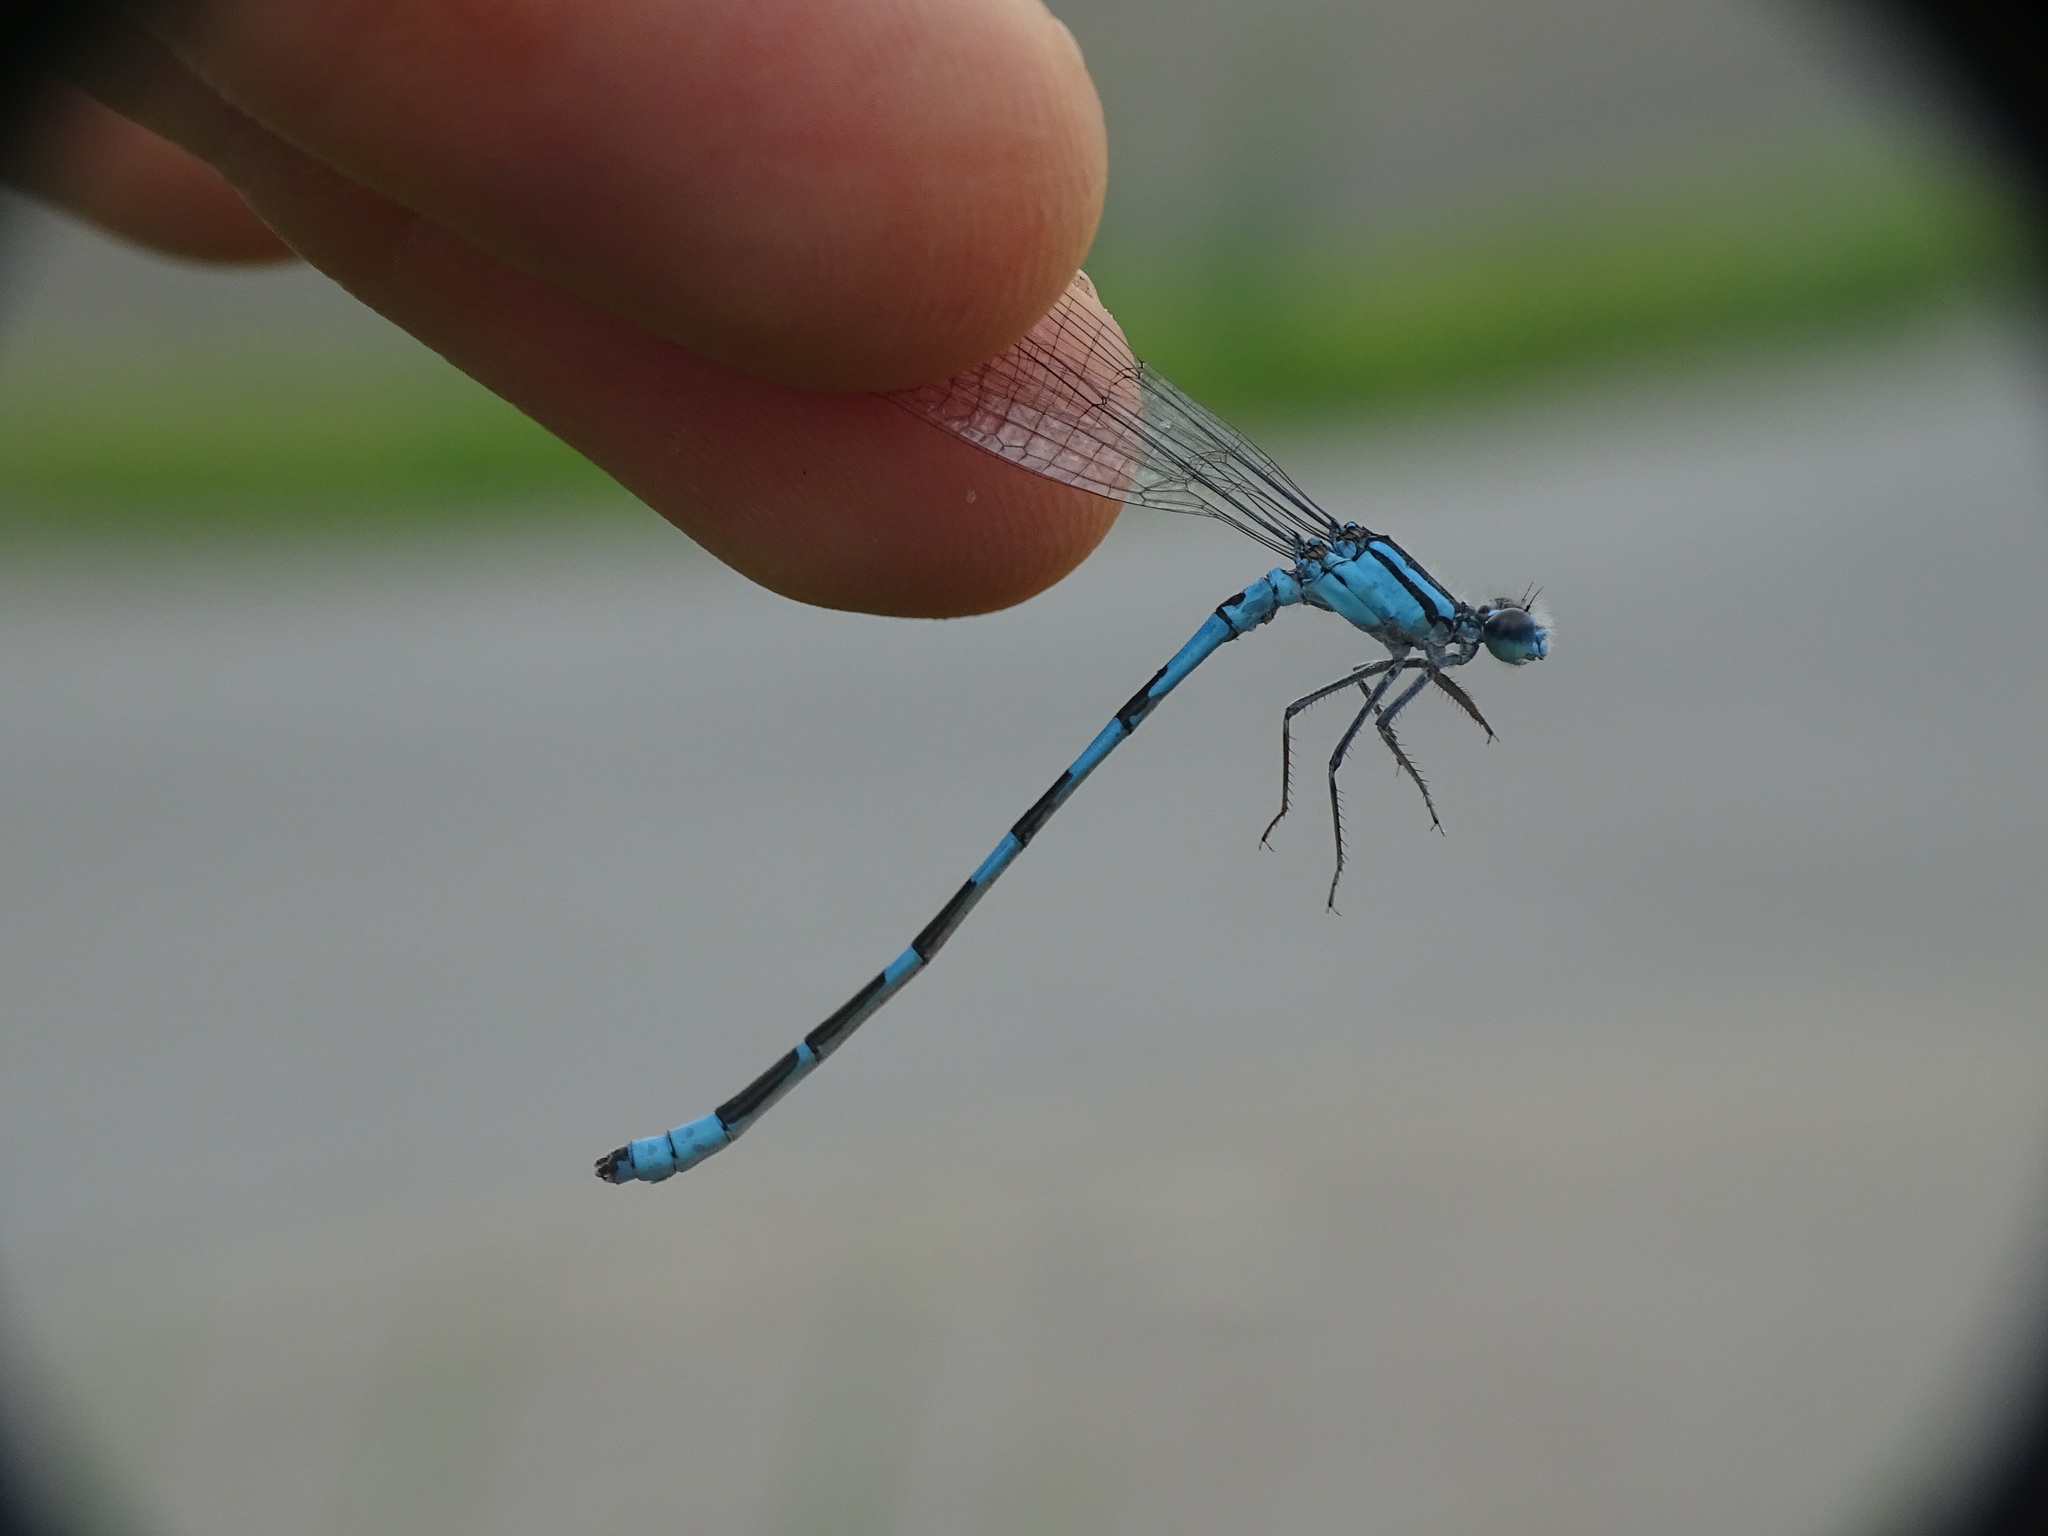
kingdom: Animalia
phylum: Arthropoda
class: Insecta
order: Odonata
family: Coenagrionidae
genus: Enallagma
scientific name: Enallagma carunculatum
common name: Tule bluet
